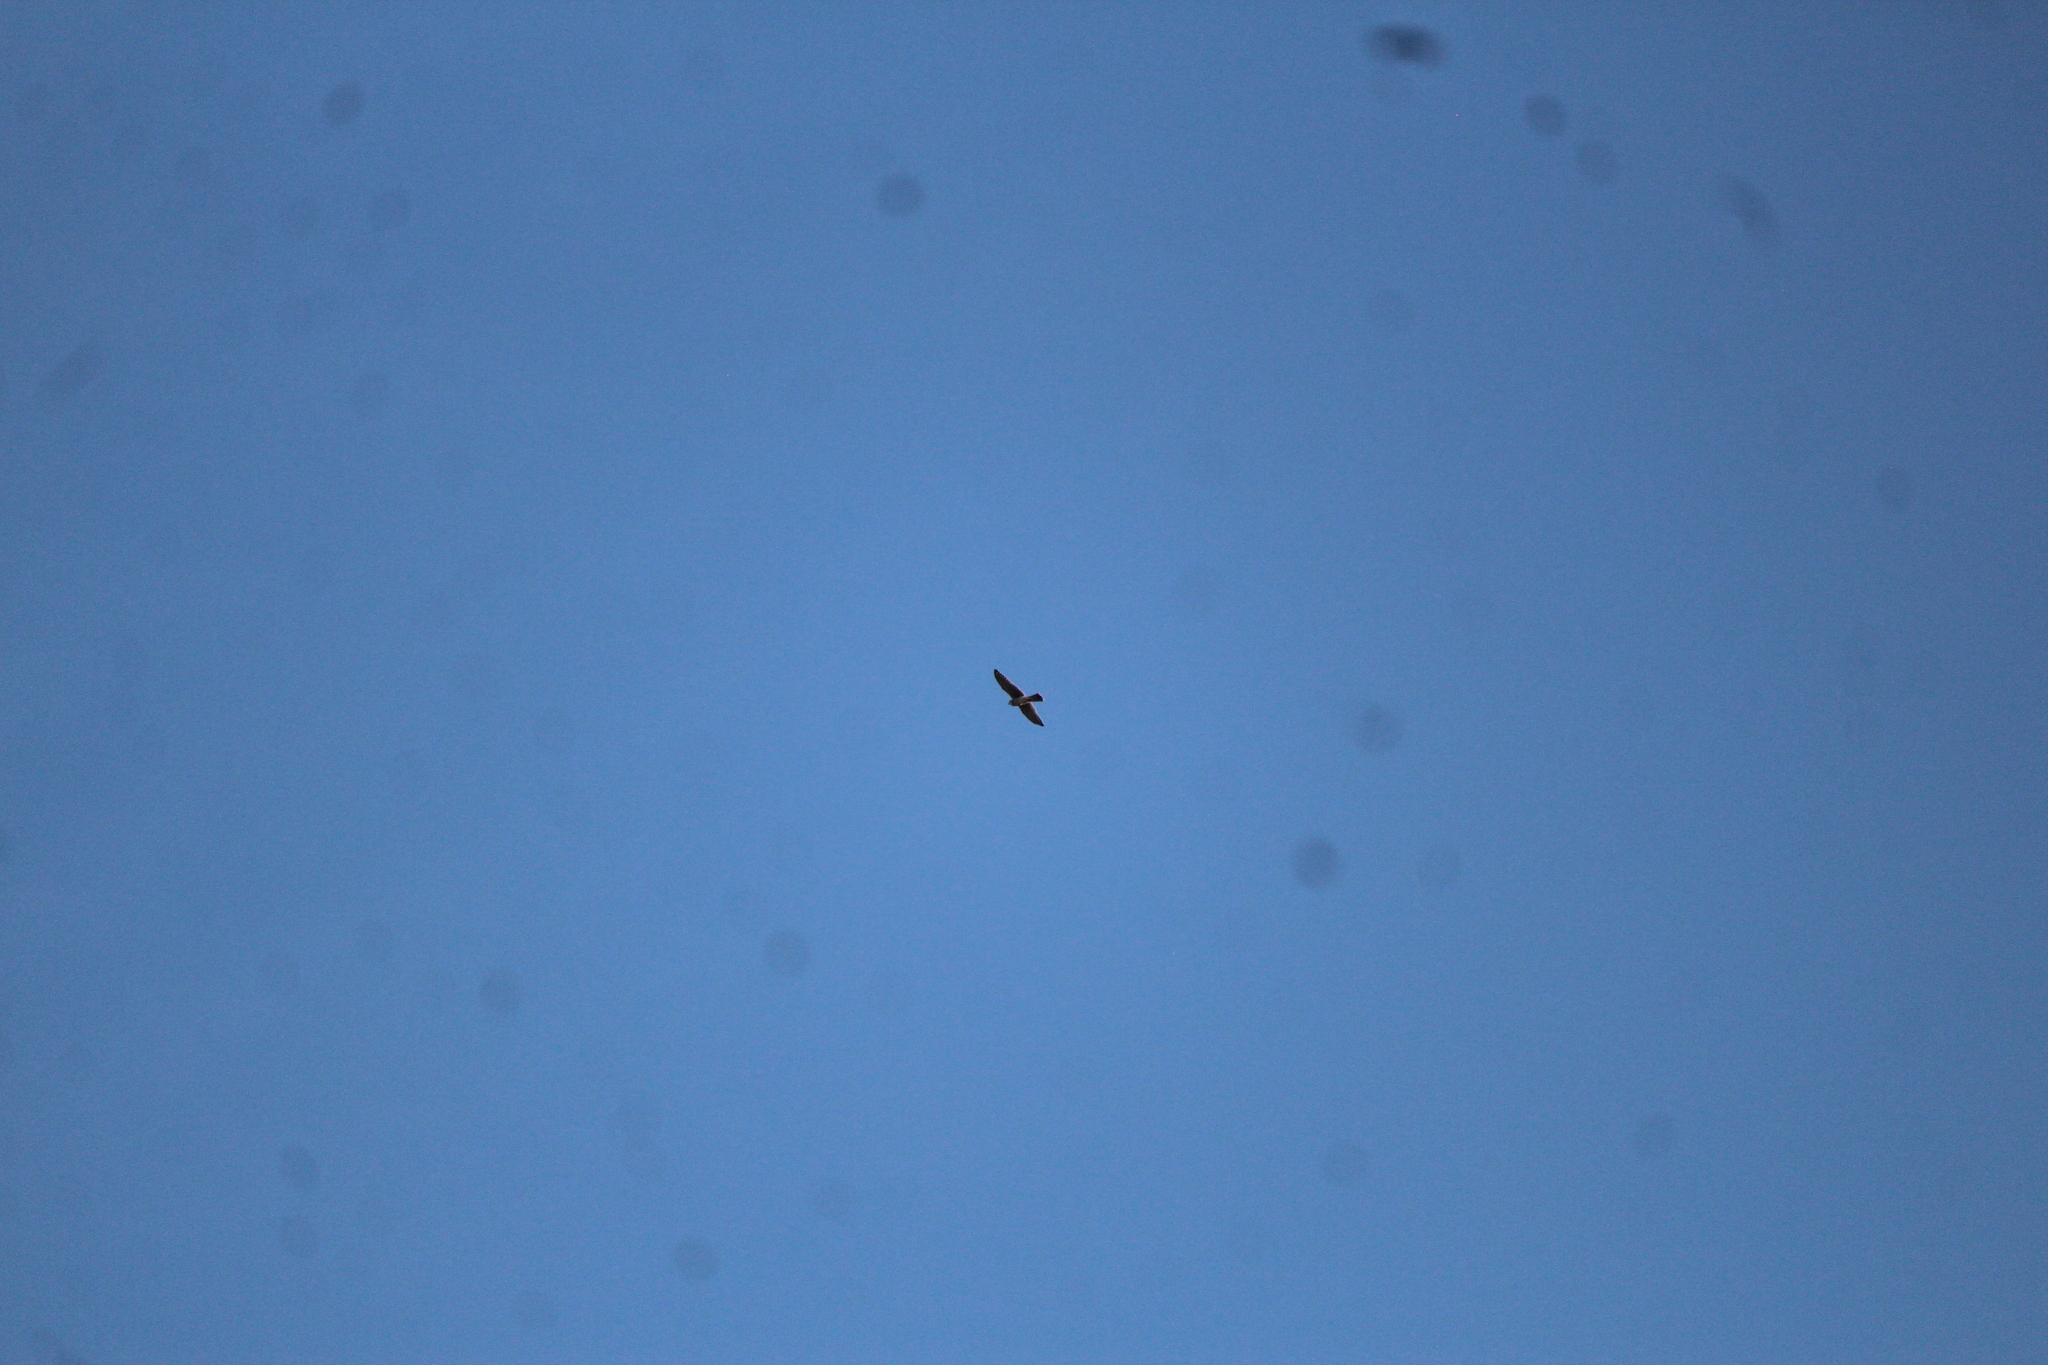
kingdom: Animalia
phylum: Chordata
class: Aves
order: Falconiformes
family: Falconidae
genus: Falco
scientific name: Falco sparverius
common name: American kestrel
